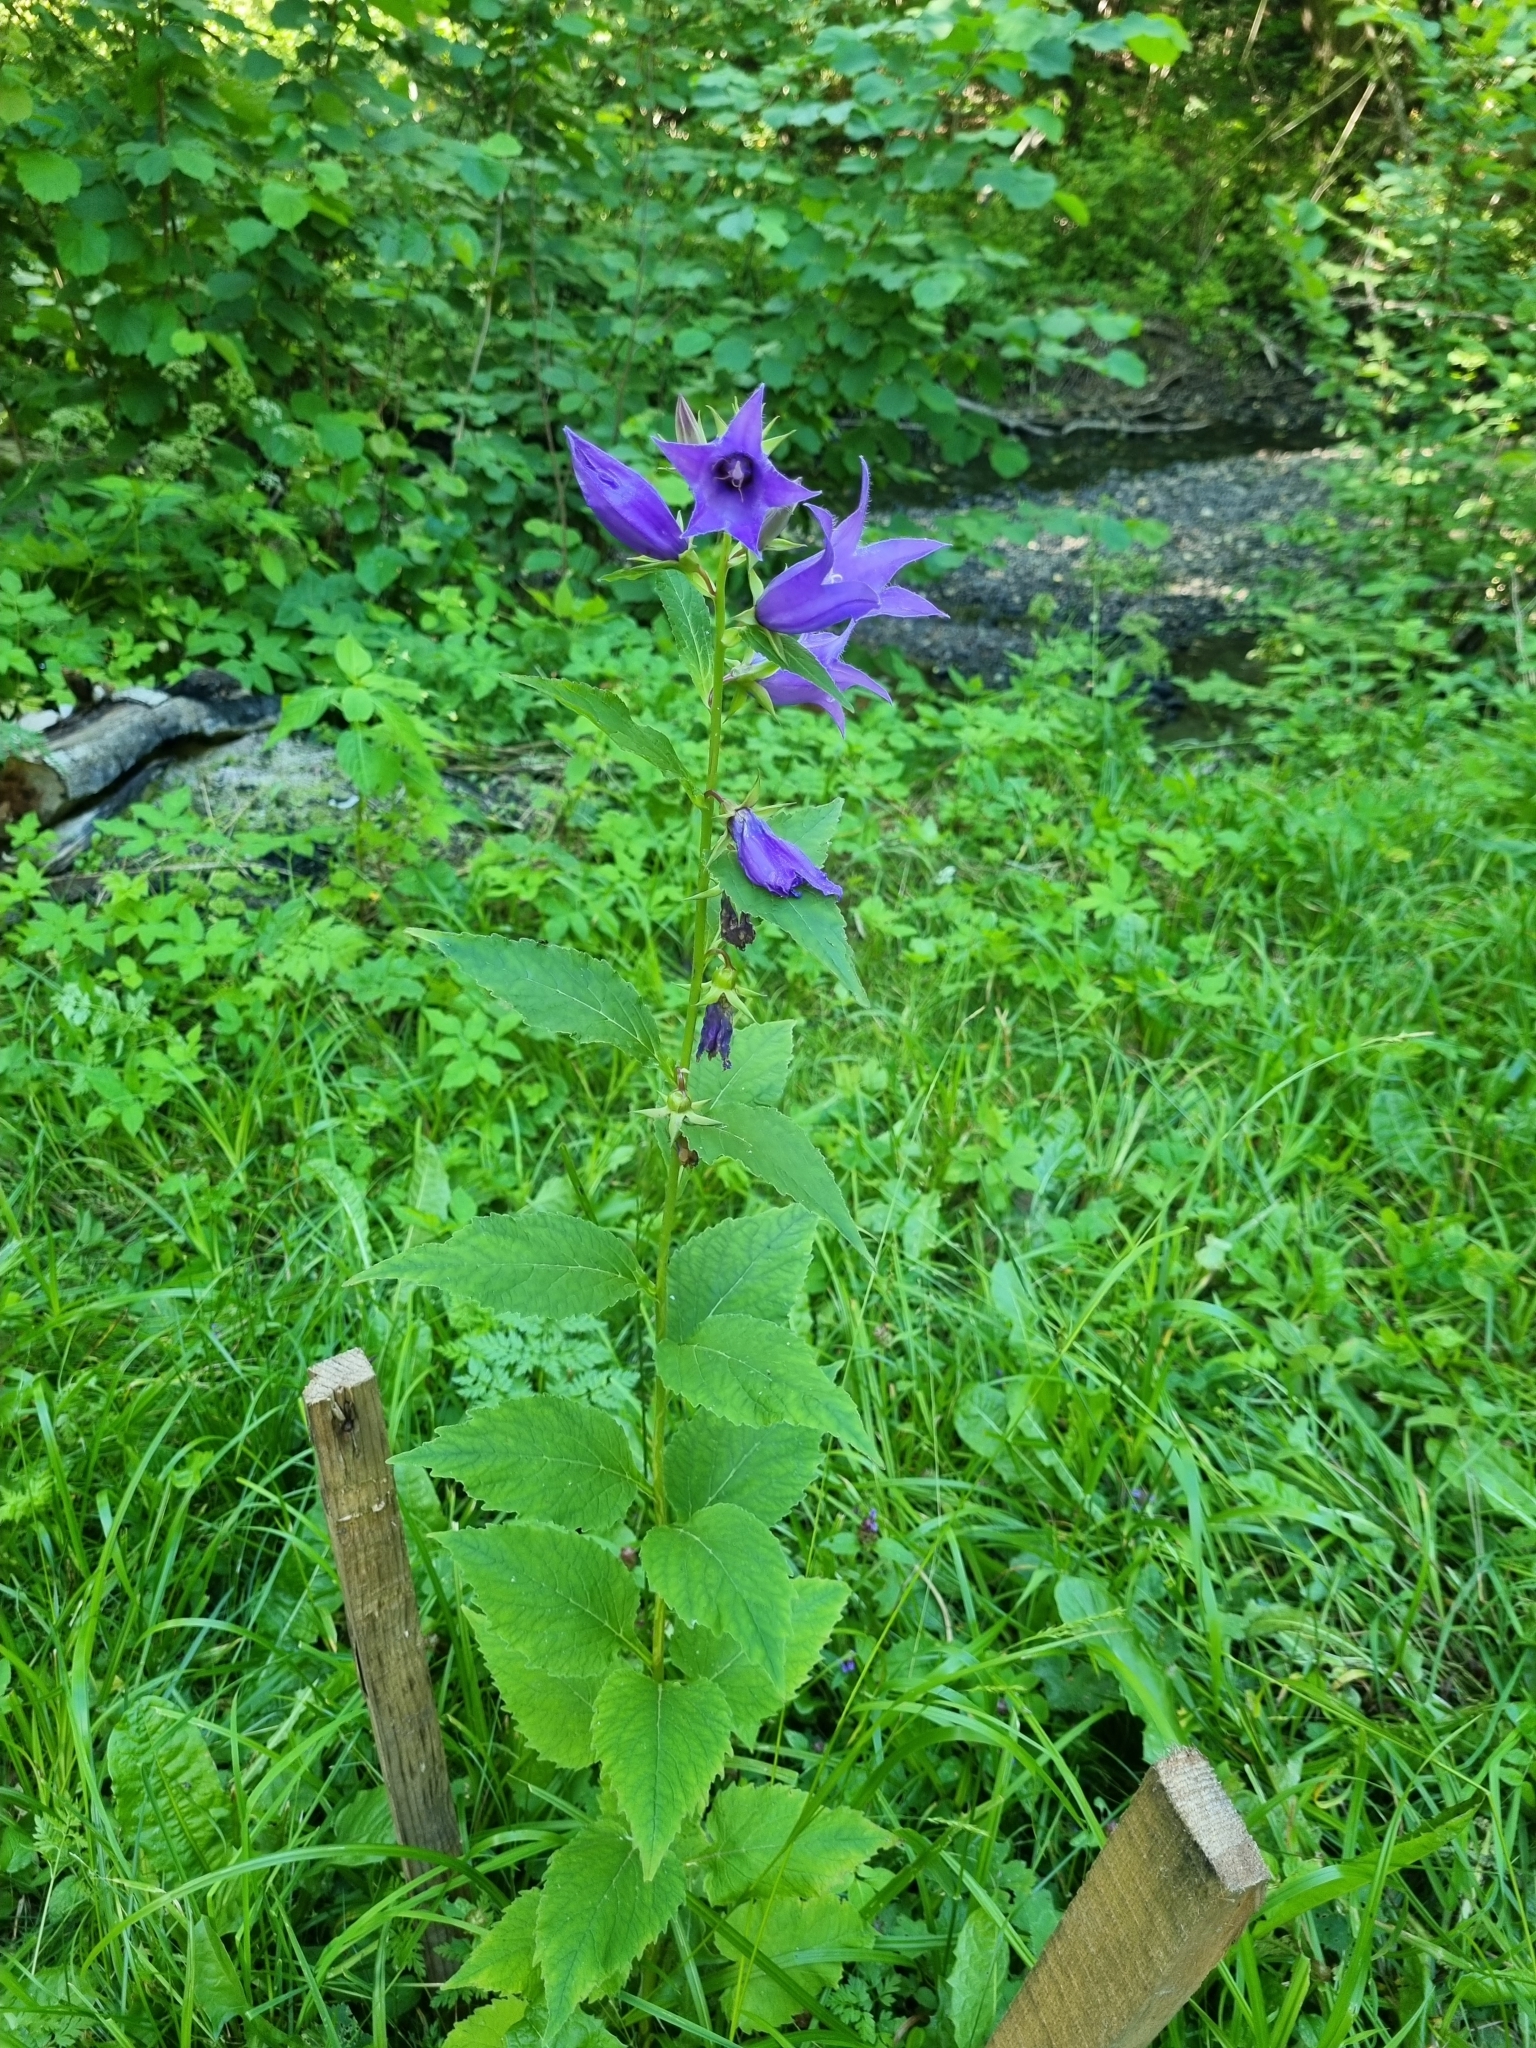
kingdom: Plantae
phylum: Tracheophyta
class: Magnoliopsida
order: Asterales
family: Campanulaceae
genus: Campanula
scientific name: Campanula latifolia
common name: Giant bellflower
